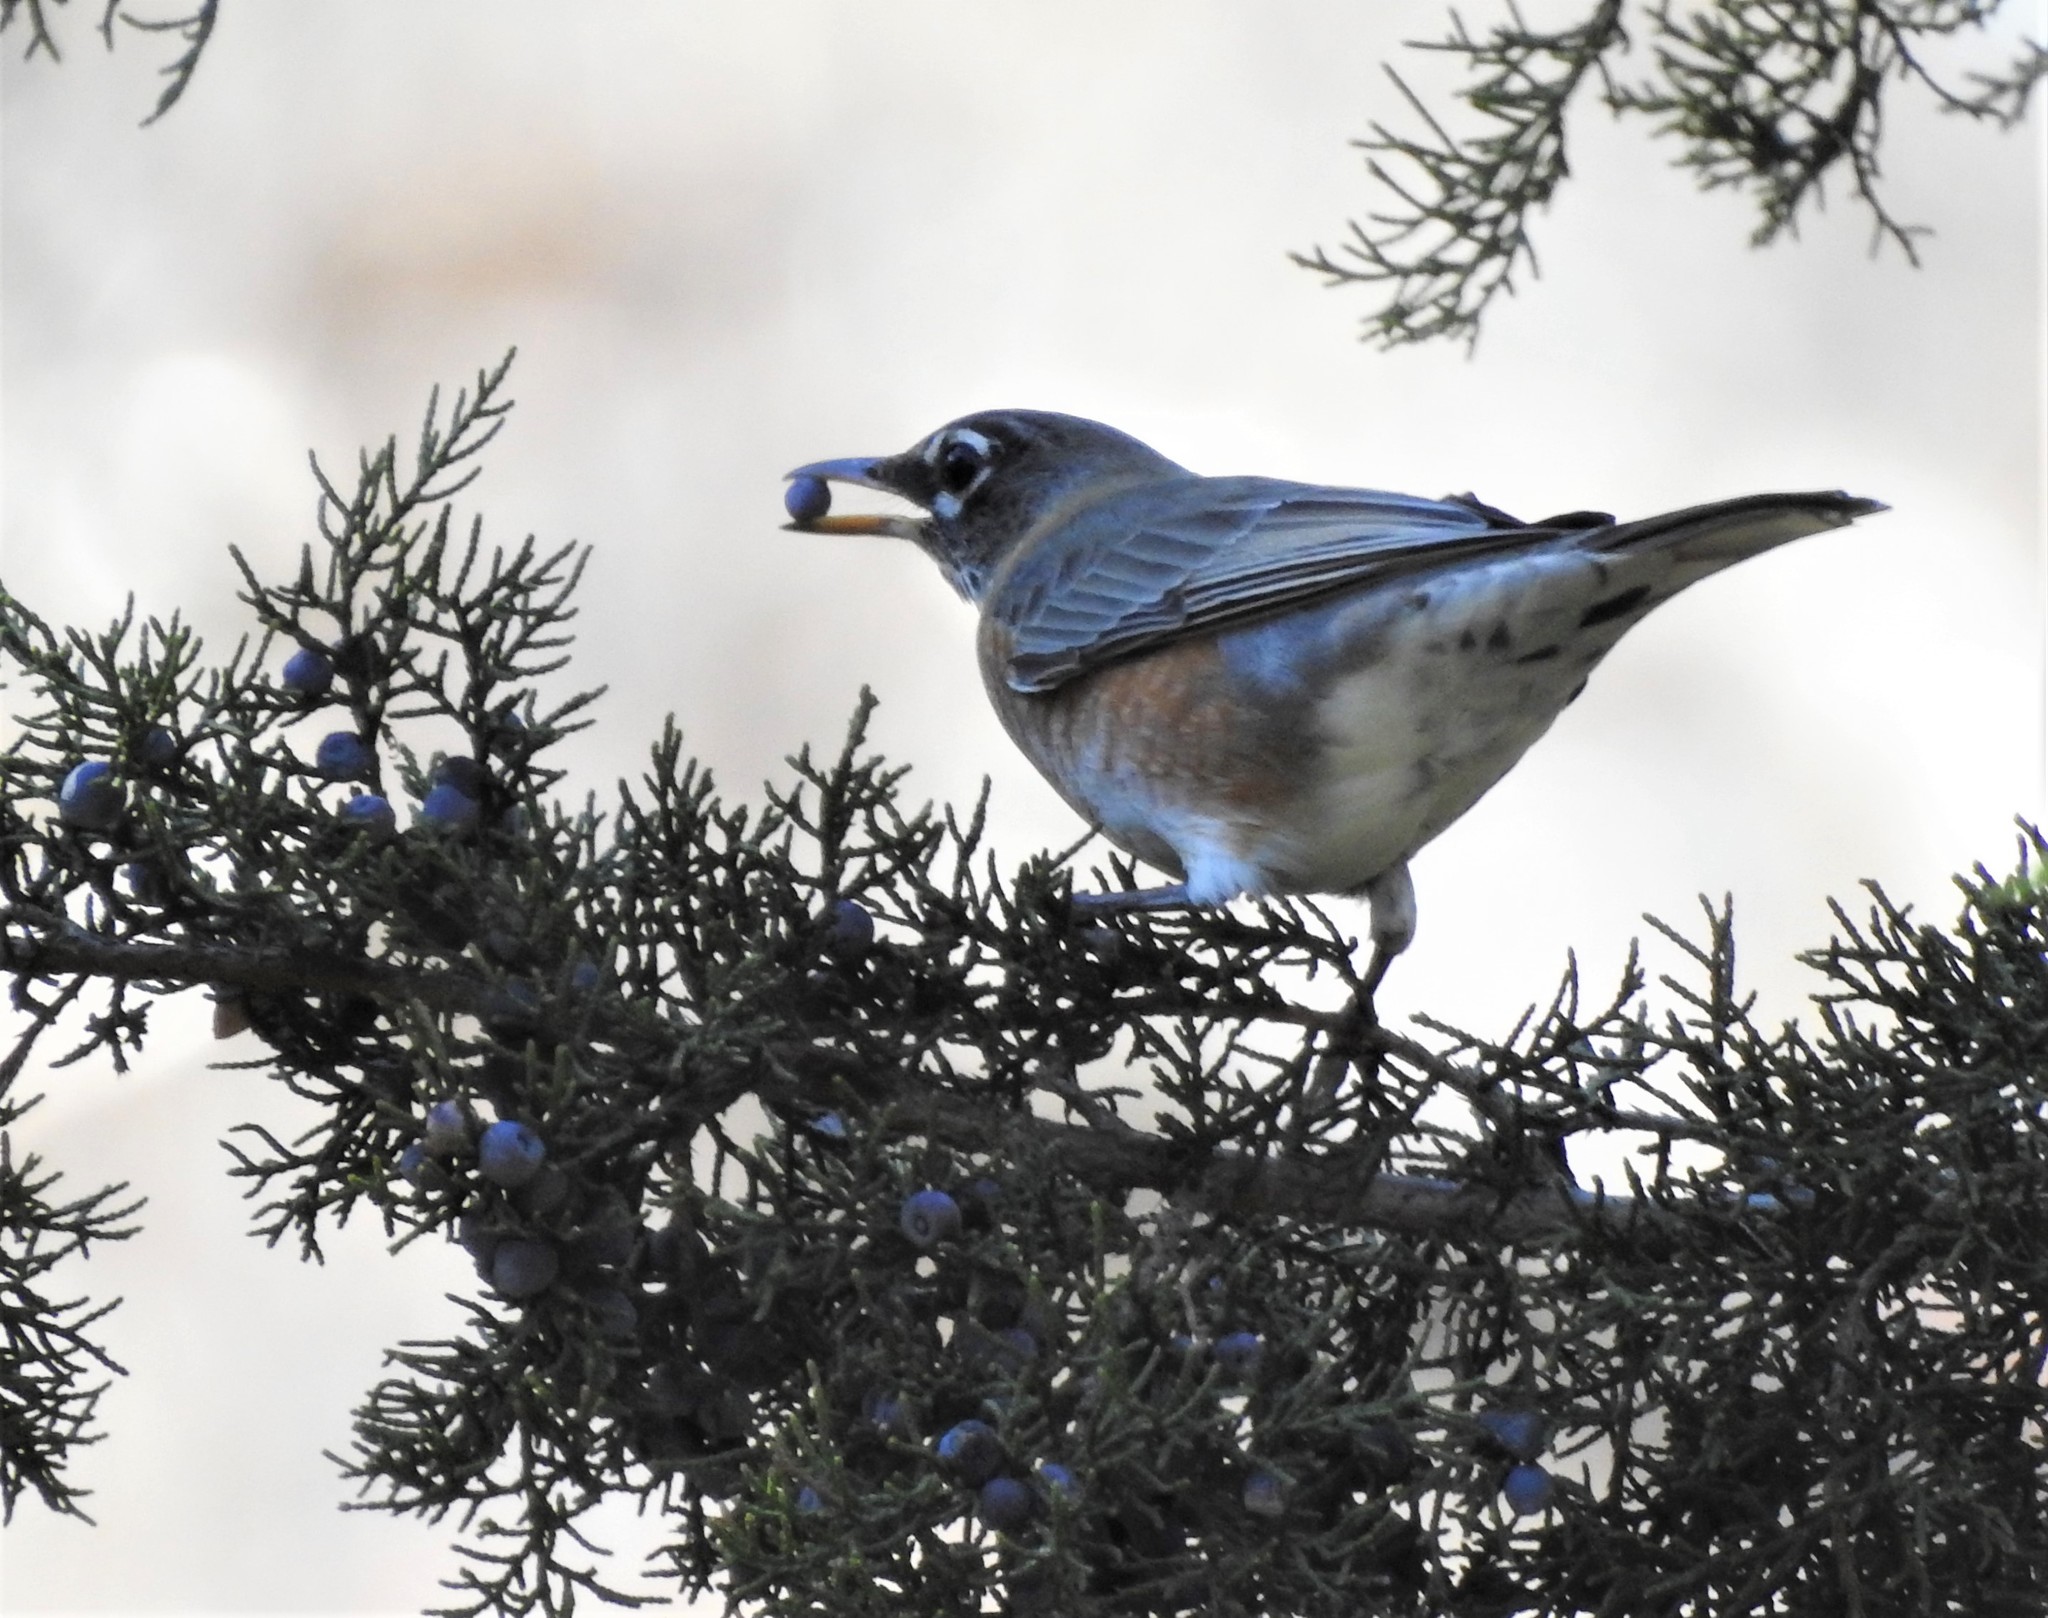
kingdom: Animalia
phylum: Chordata
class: Aves
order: Passeriformes
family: Turdidae
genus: Turdus
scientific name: Turdus migratorius
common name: American robin
